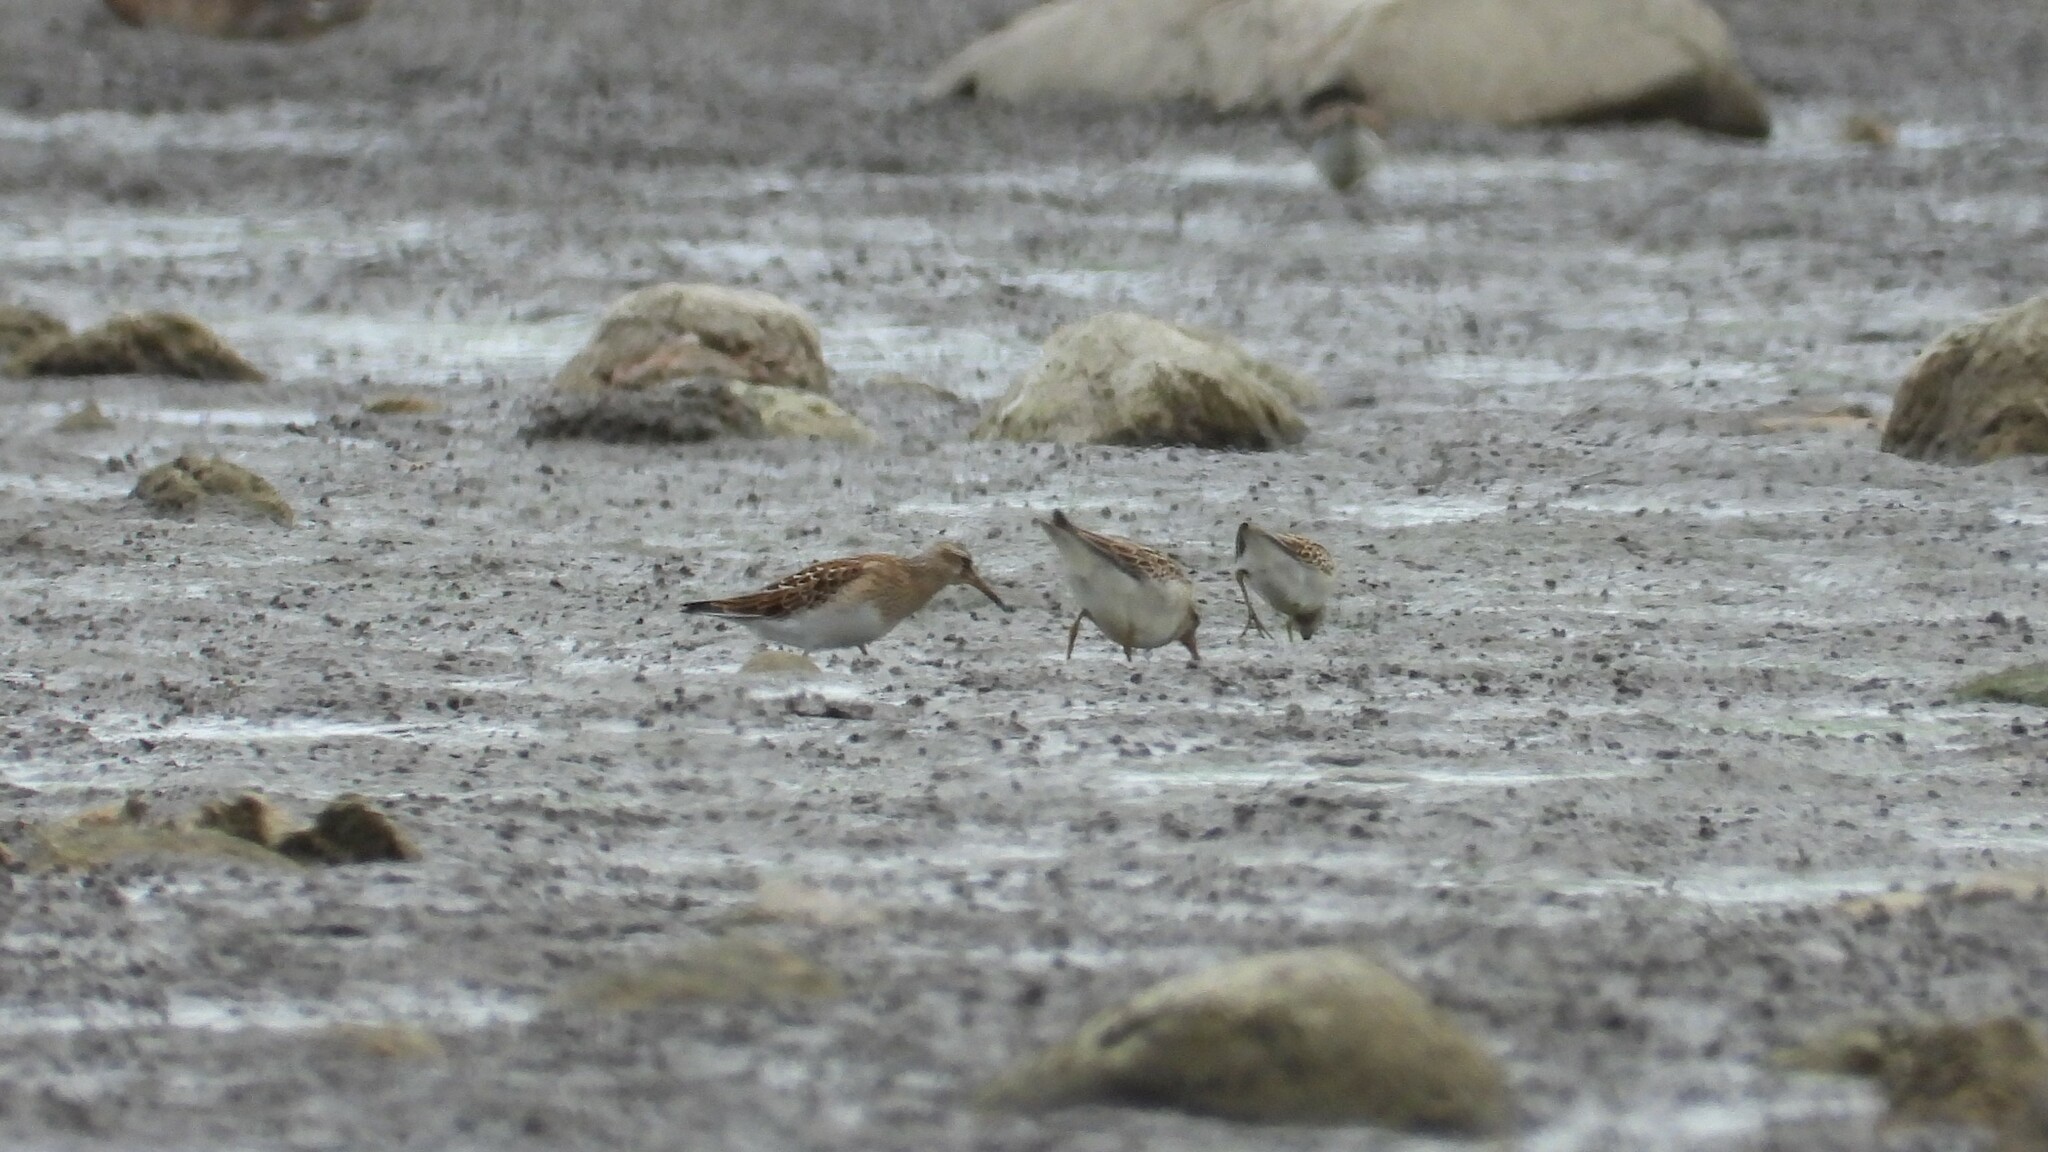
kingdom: Animalia
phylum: Chordata
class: Aves
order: Charadriiformes
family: Scolopacidae
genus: Calidris
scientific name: Calidris melanotos
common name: Pectoral sandpiper
